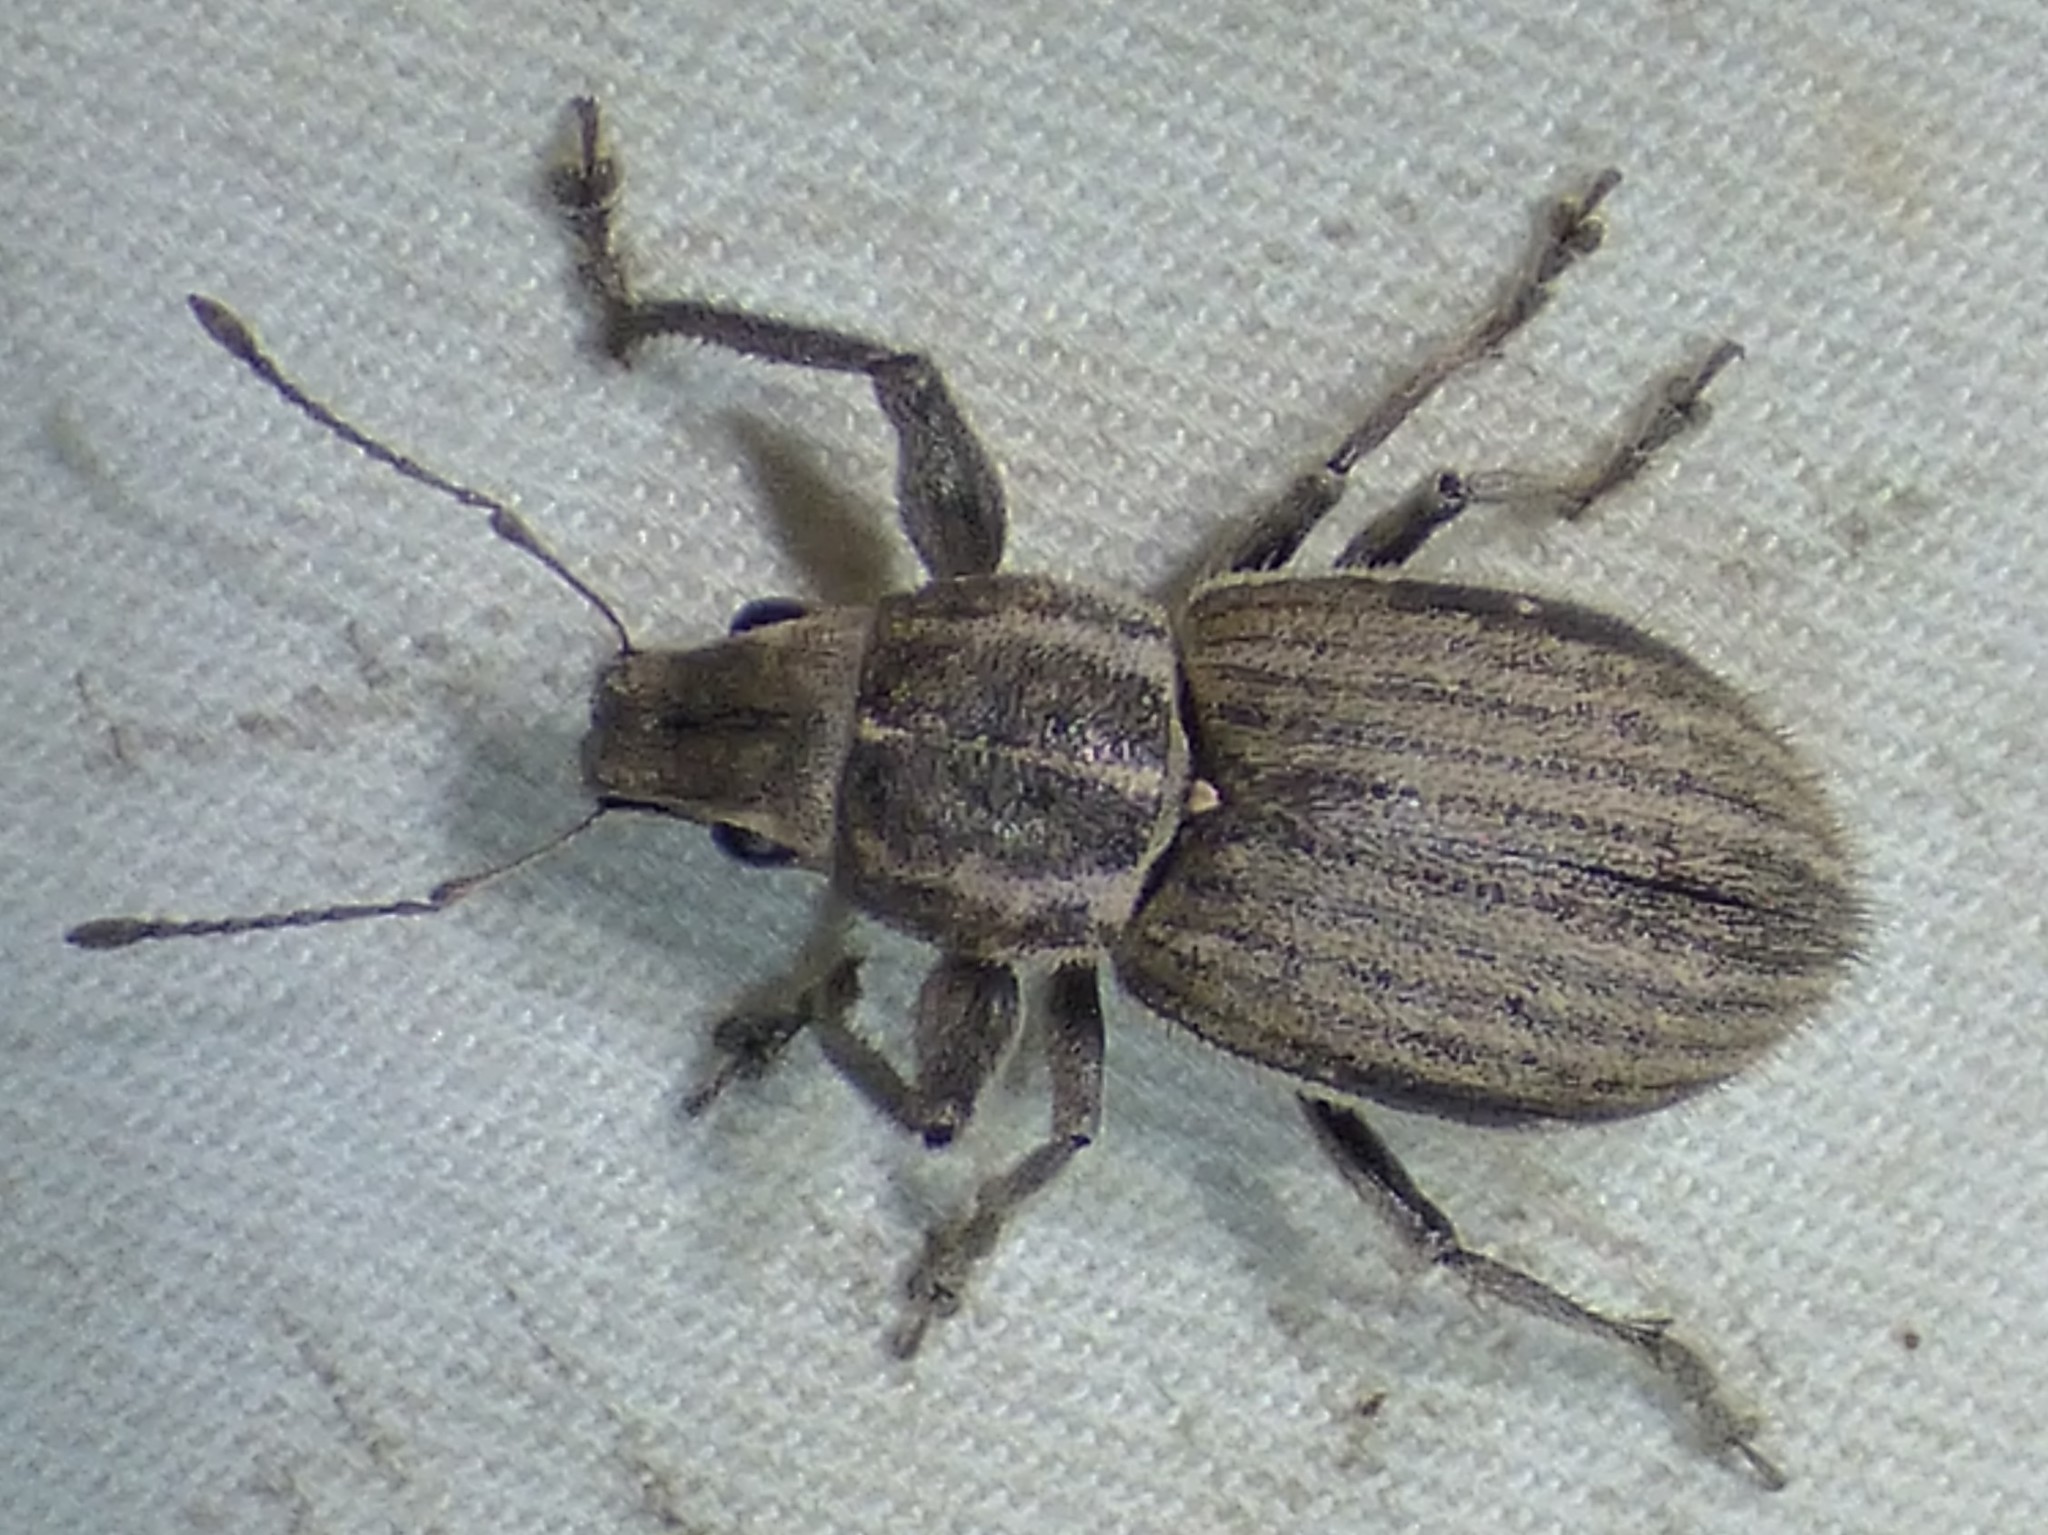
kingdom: Animalia
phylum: Arthropoda
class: Insecta
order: Coleoptera
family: Curculionidae
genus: Naupactus
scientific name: Naupactus leucoloma
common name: Whitefringed beetle
